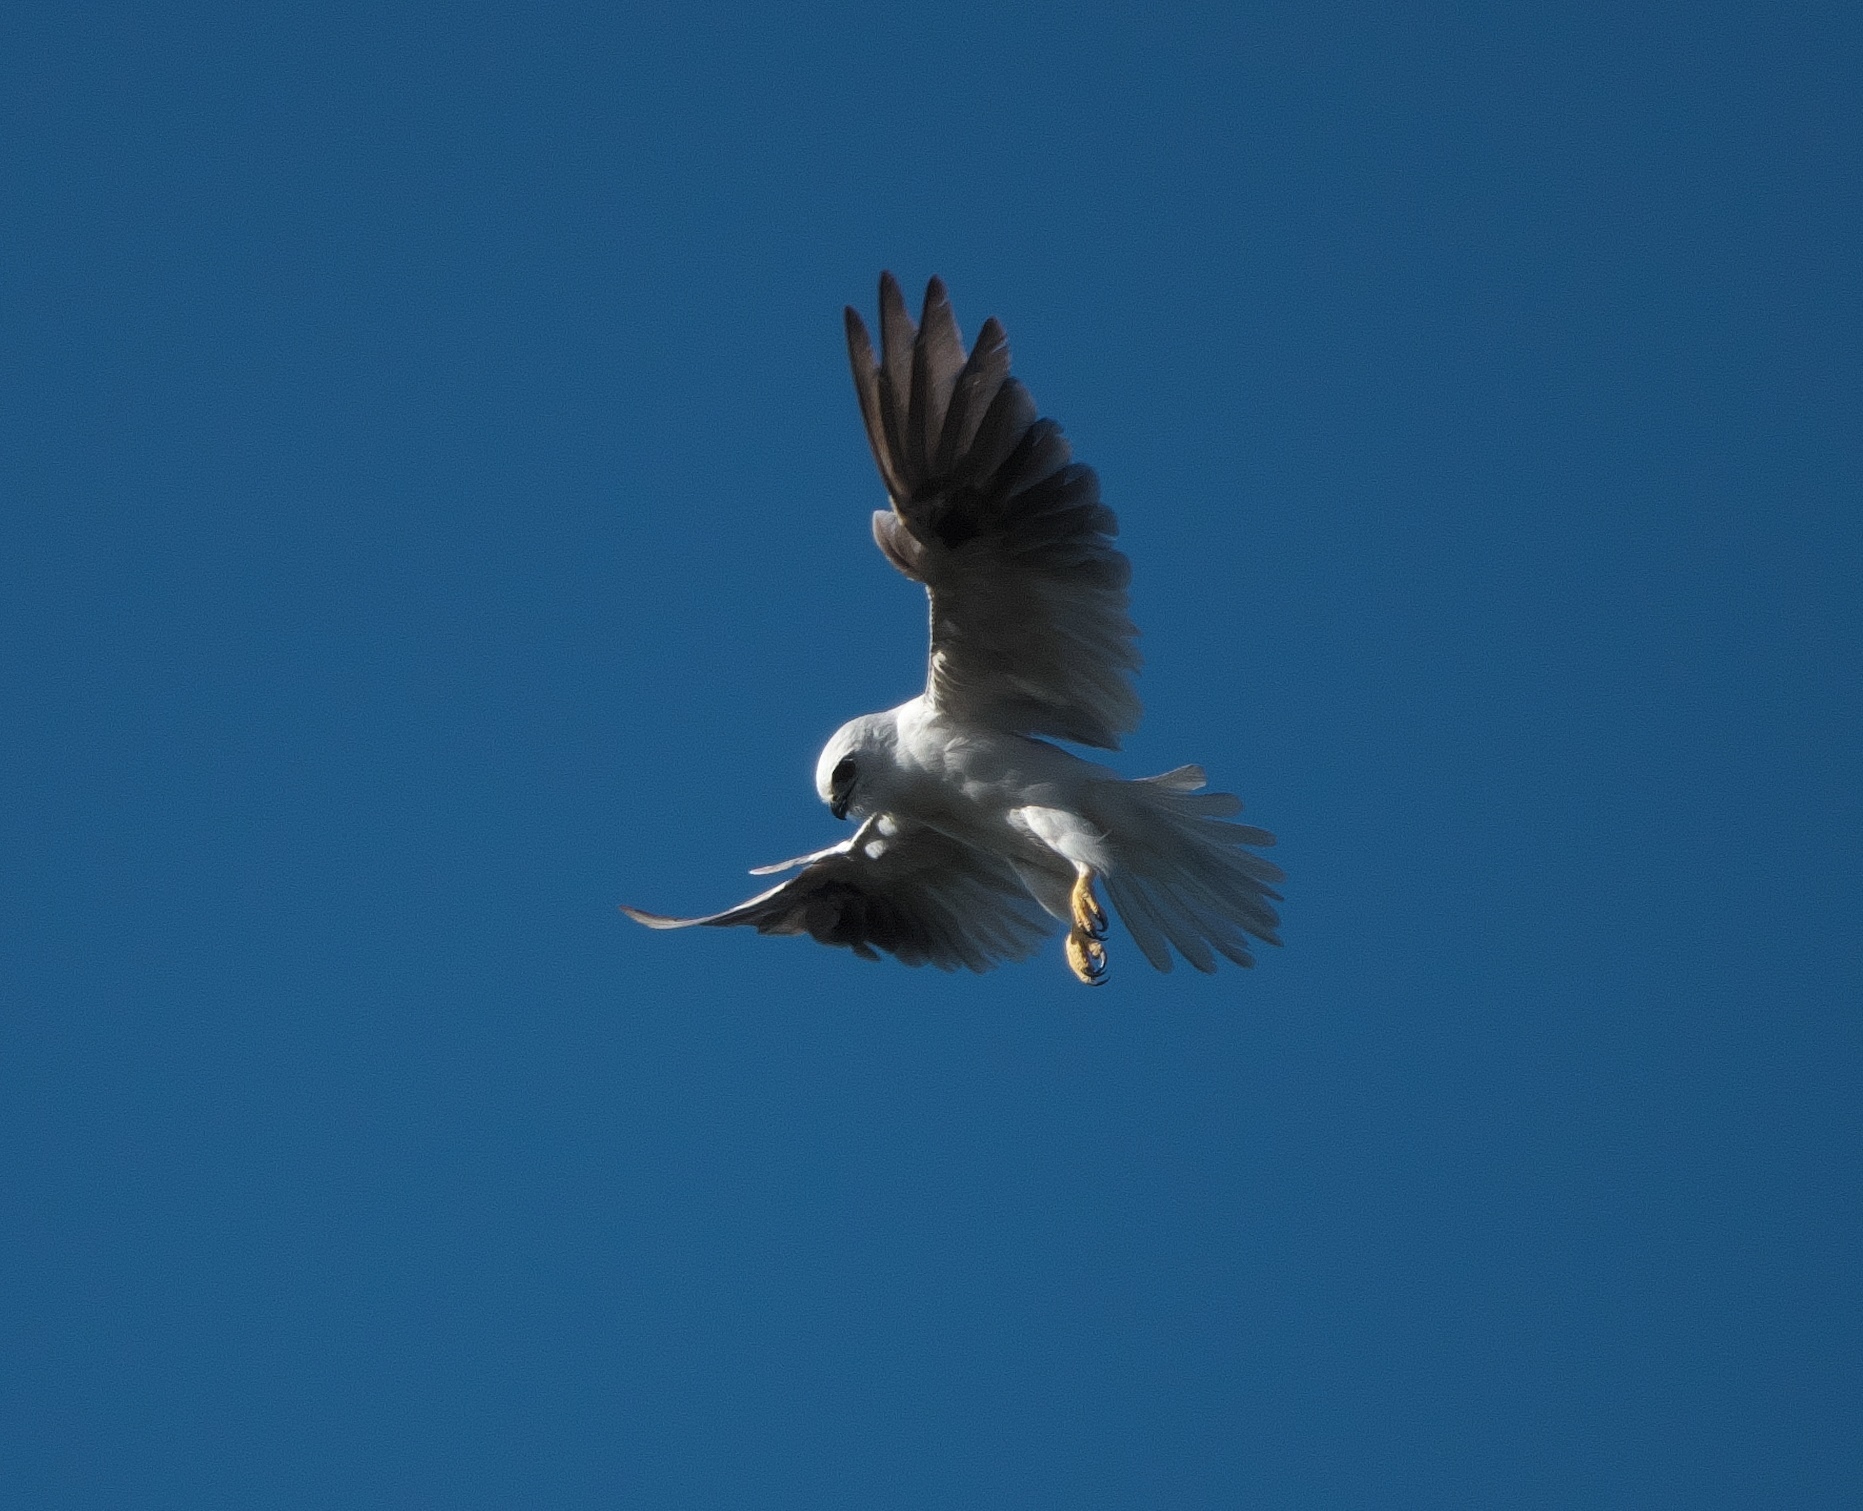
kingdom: Animalia
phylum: Chordata
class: Aves
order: Accipitriformes
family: Accipitridae
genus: Elanus
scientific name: Elanus axillaris
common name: Black-shouldered kite
